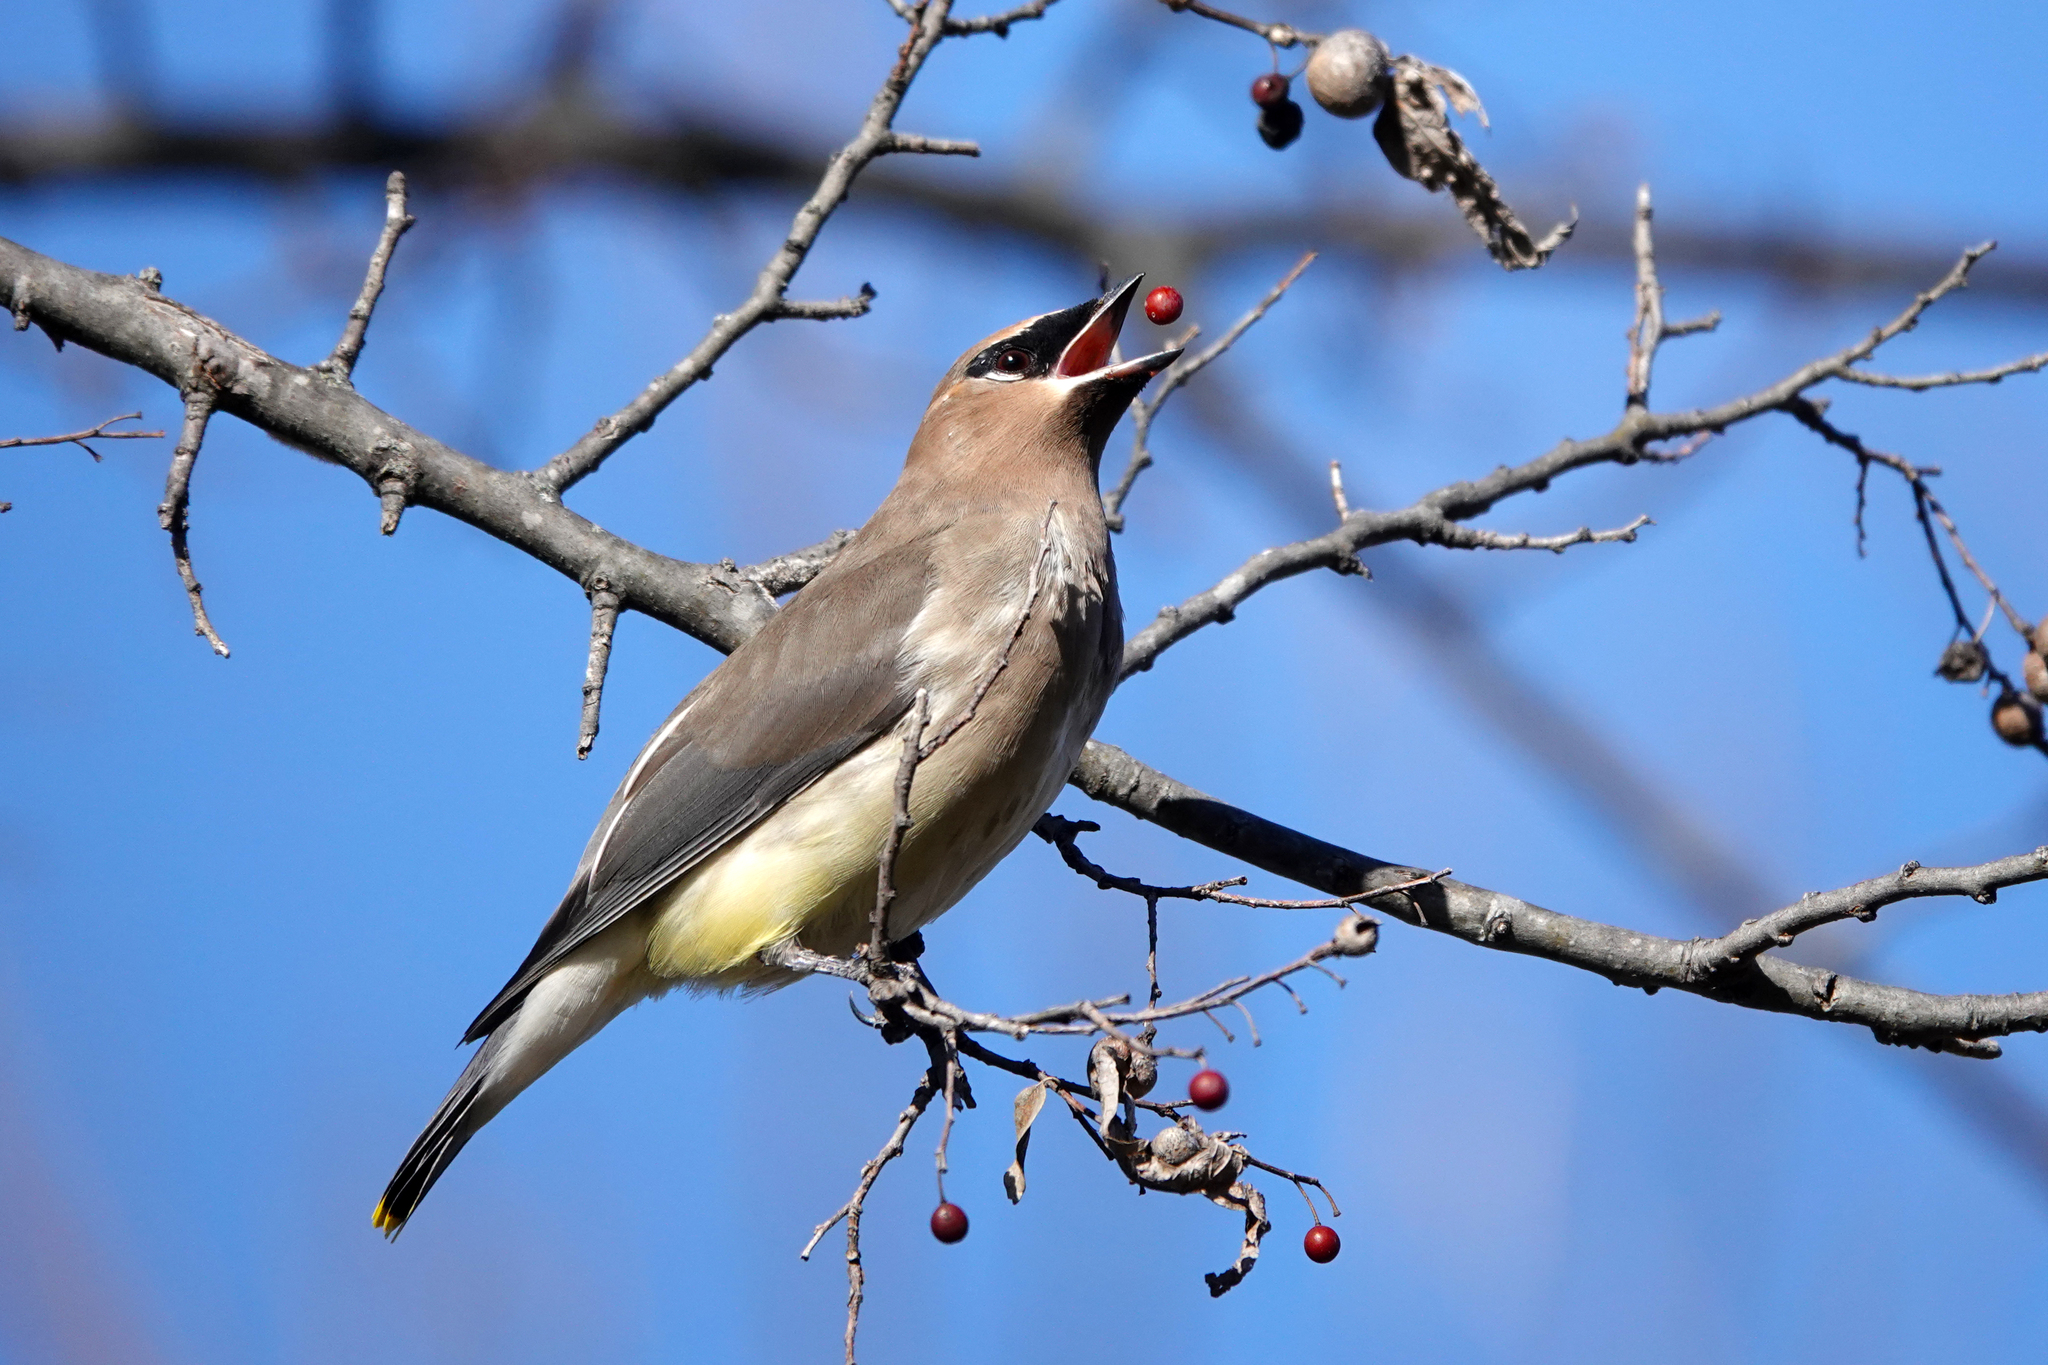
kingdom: Animalia
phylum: Chordata
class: Aves
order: Passeriformes
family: Bombycillidae
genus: Bombycilla
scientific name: Bombycilla cedrorum
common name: Cedar waxwing
